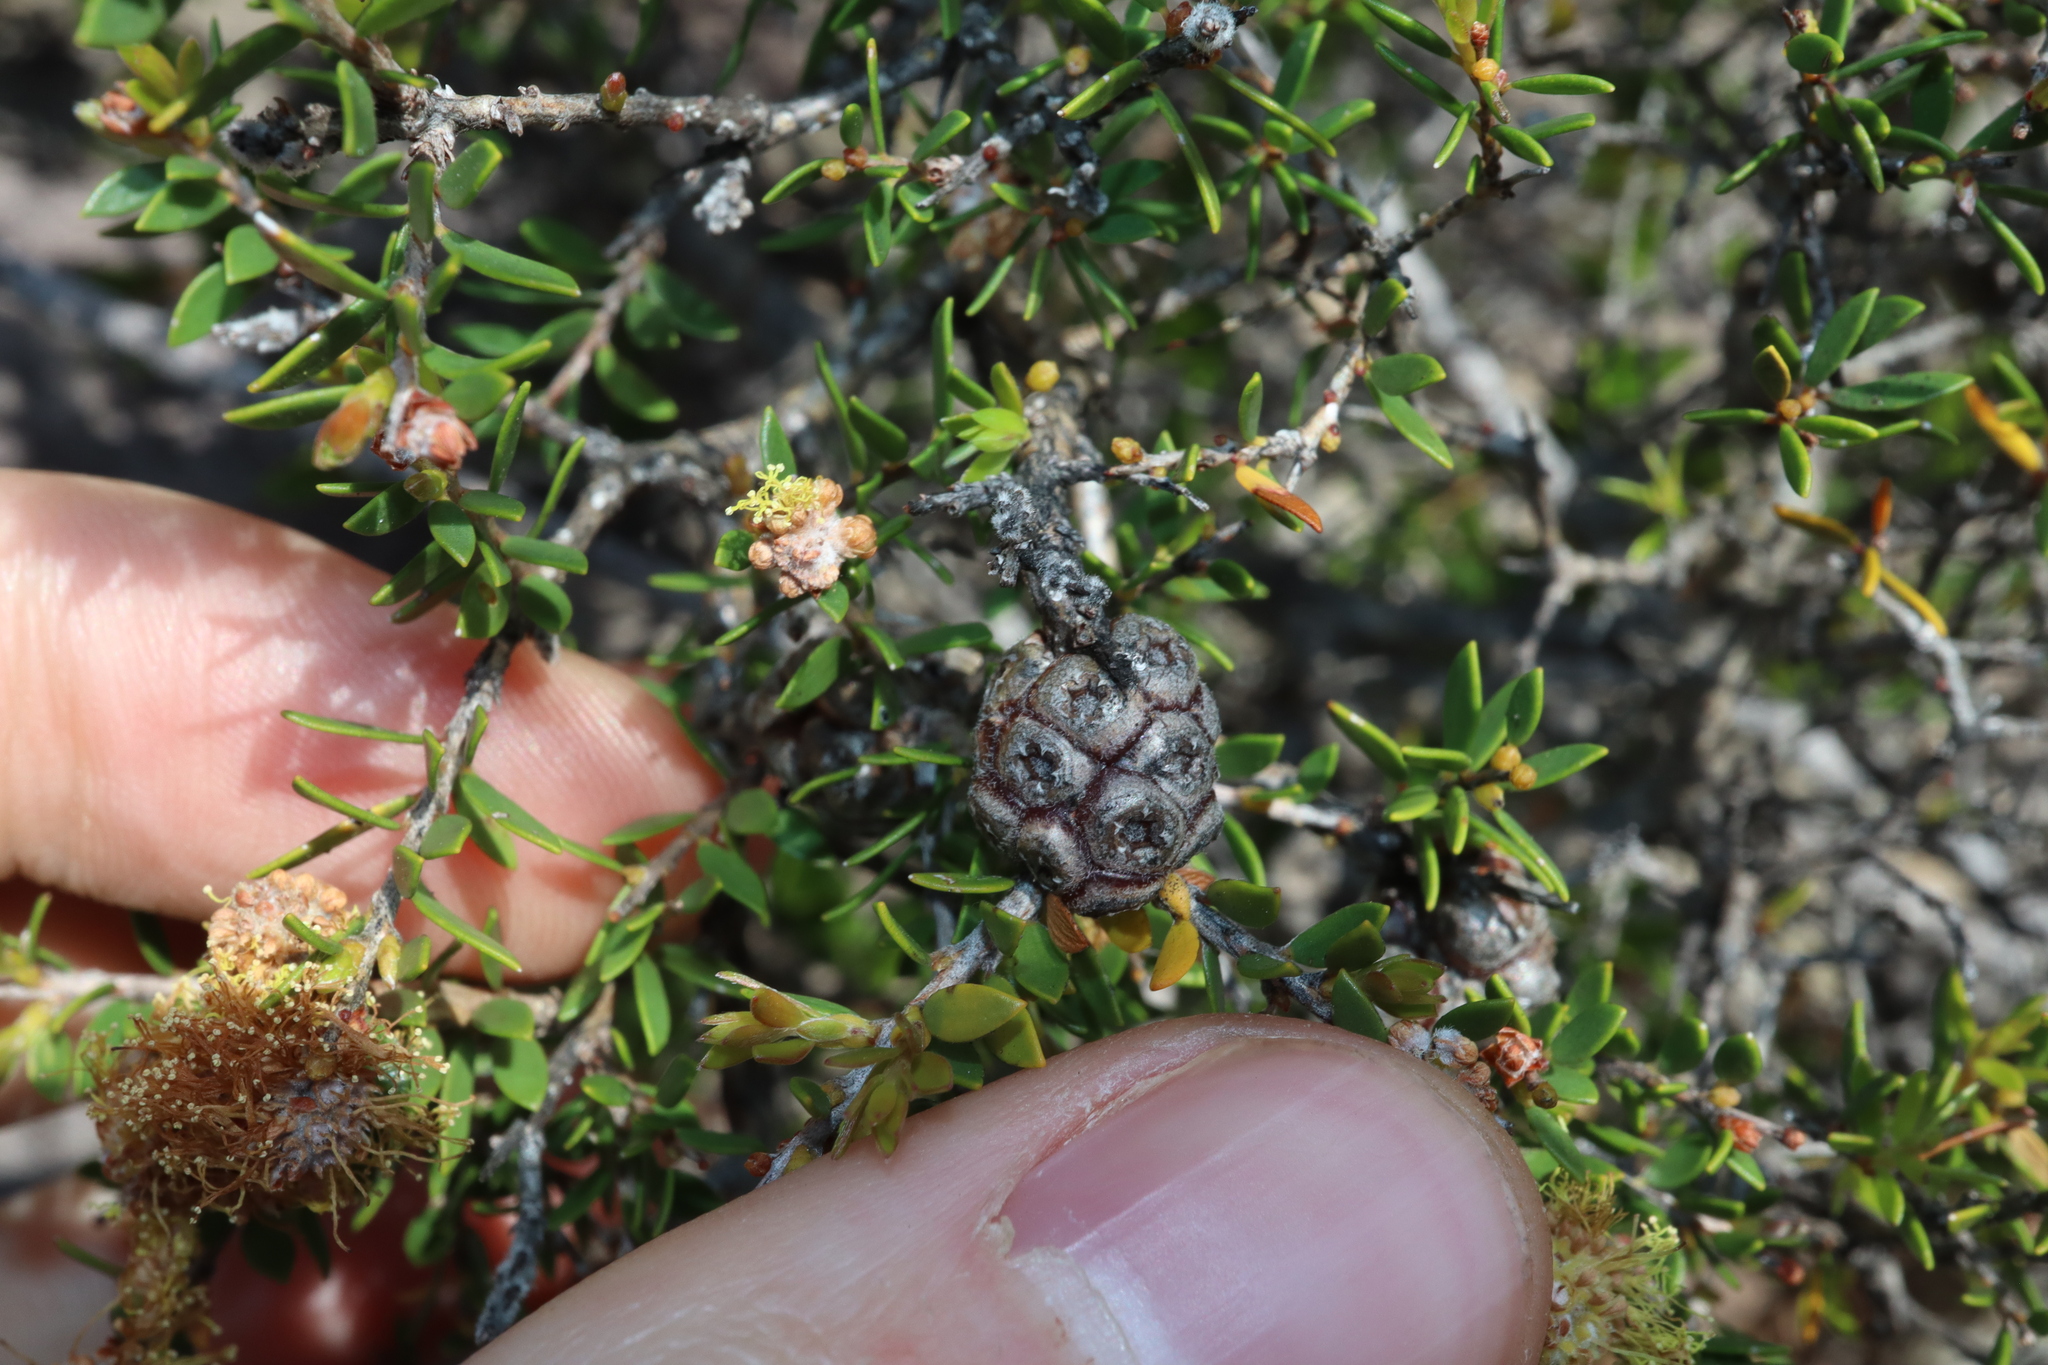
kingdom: Plantae
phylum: Tracheophyta
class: Magnoliopsida
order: Myrtales
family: Myrtaceae
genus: Melaleuca
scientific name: Melaleuca thymoides
